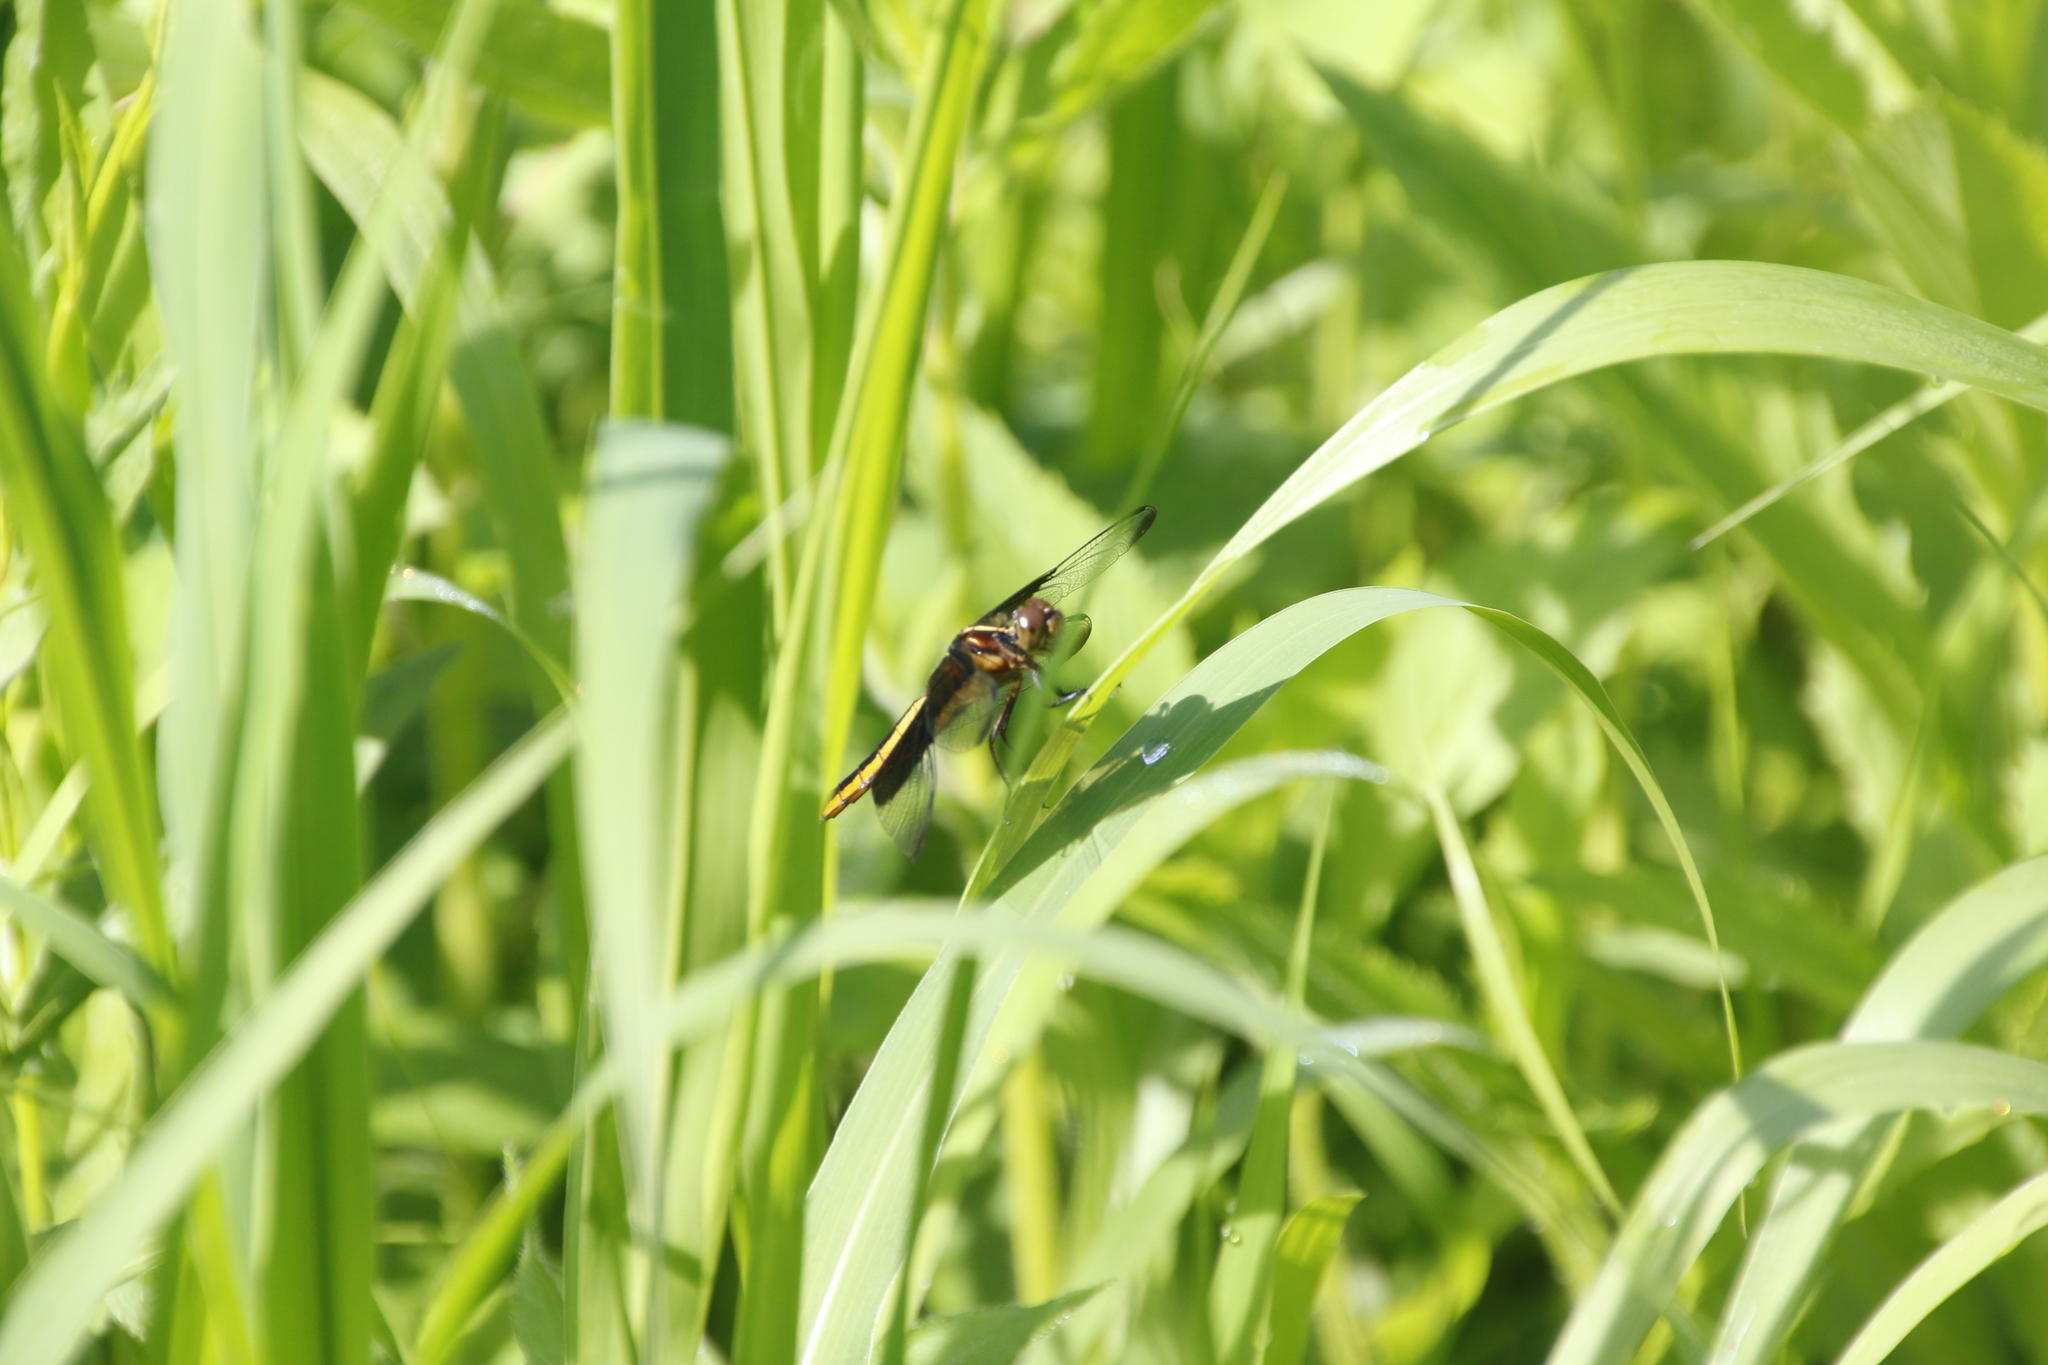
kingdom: Animalia
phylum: Arthropoda
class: Insecta
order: Odonata
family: Libellulidae
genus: Libellula
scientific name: Libellula luctuosa
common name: Widow skimmer
